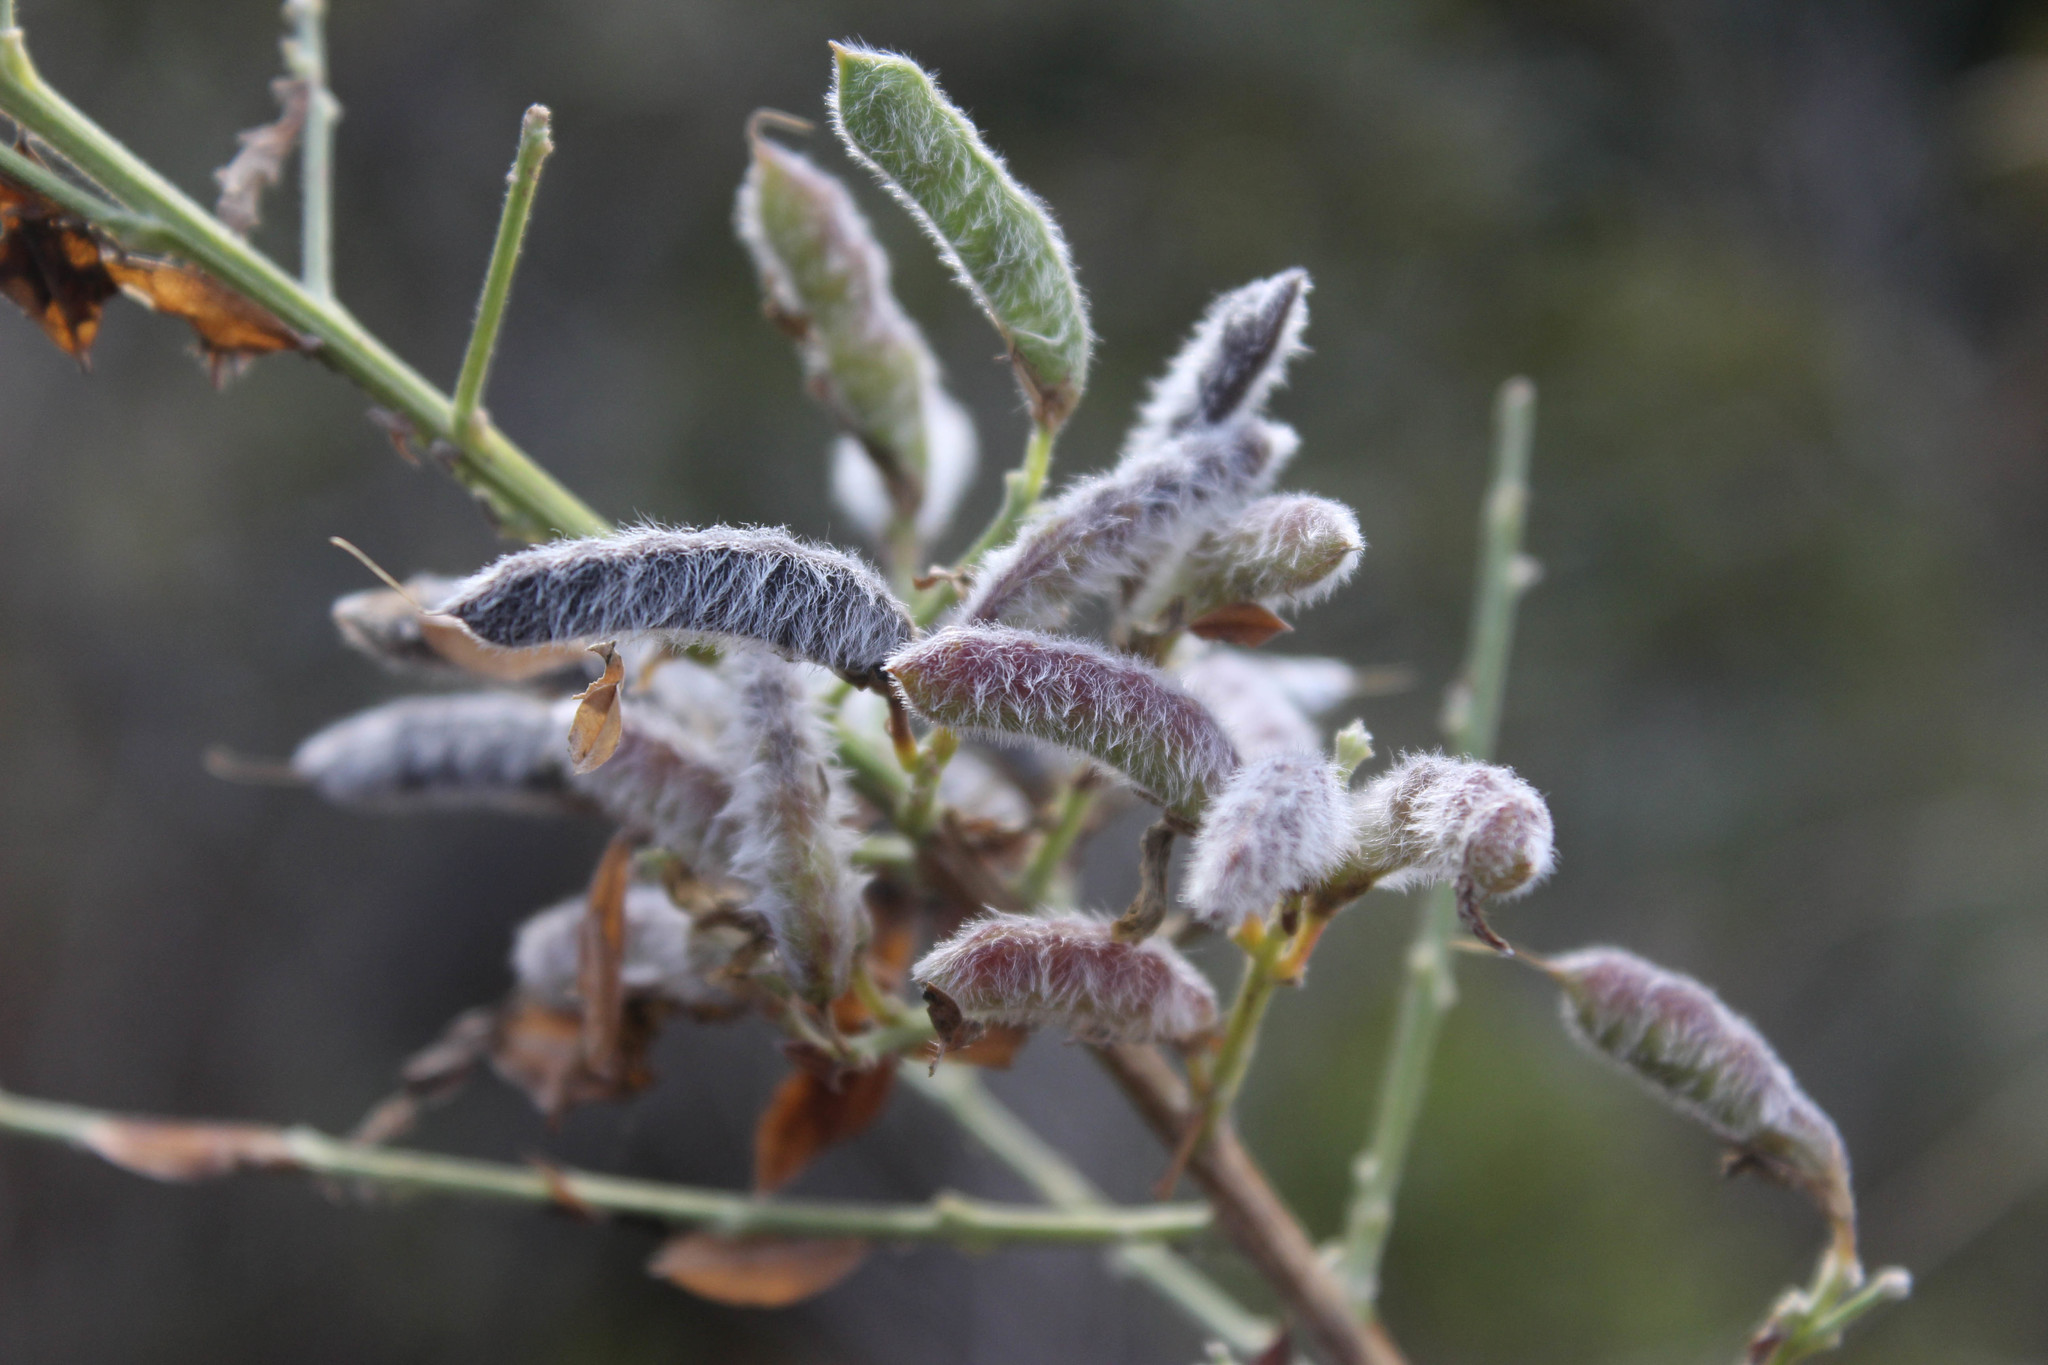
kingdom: Plantae
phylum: Tracheophyta
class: Magnoliopsida
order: Fabales
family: Fabaceae
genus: Genista
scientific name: Genista monspessulana
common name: Montpellier broom
